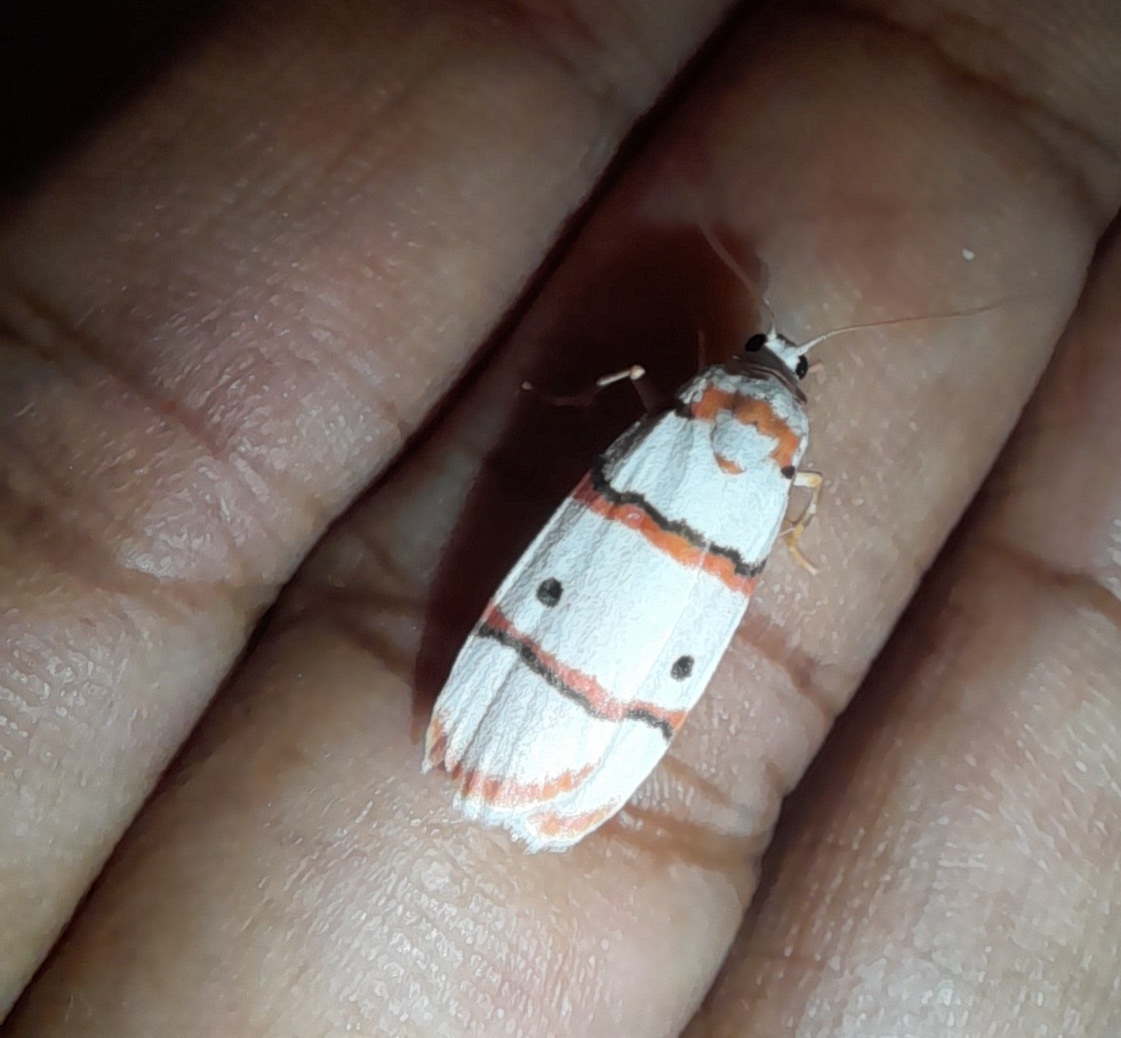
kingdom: Animalia
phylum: Arthropoda
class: Insecta
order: Lepidoptera
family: Erebidae
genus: Cyana
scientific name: Cyana peregrina
